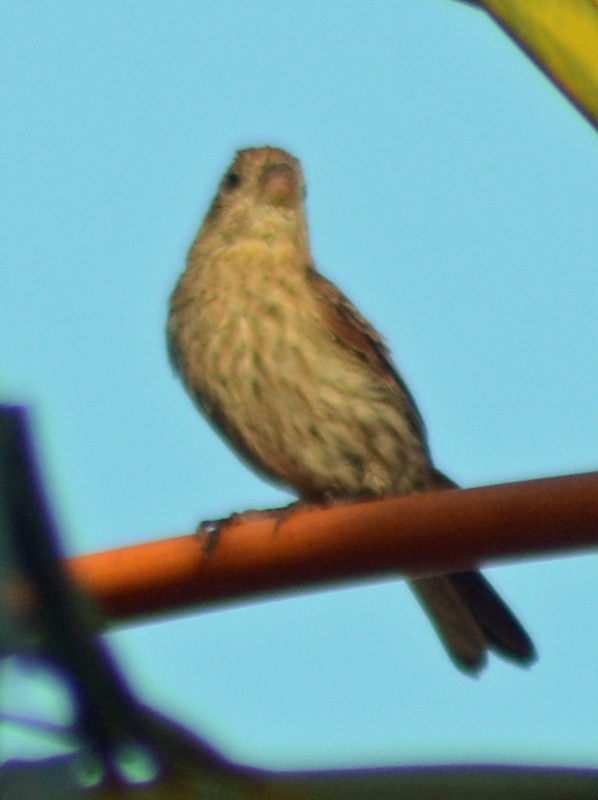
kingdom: Animalia
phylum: Chordata
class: Aves
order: Passeriformes
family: Fringillidae
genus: Haemorhous
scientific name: Haemorhous mexicanus
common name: House finch
